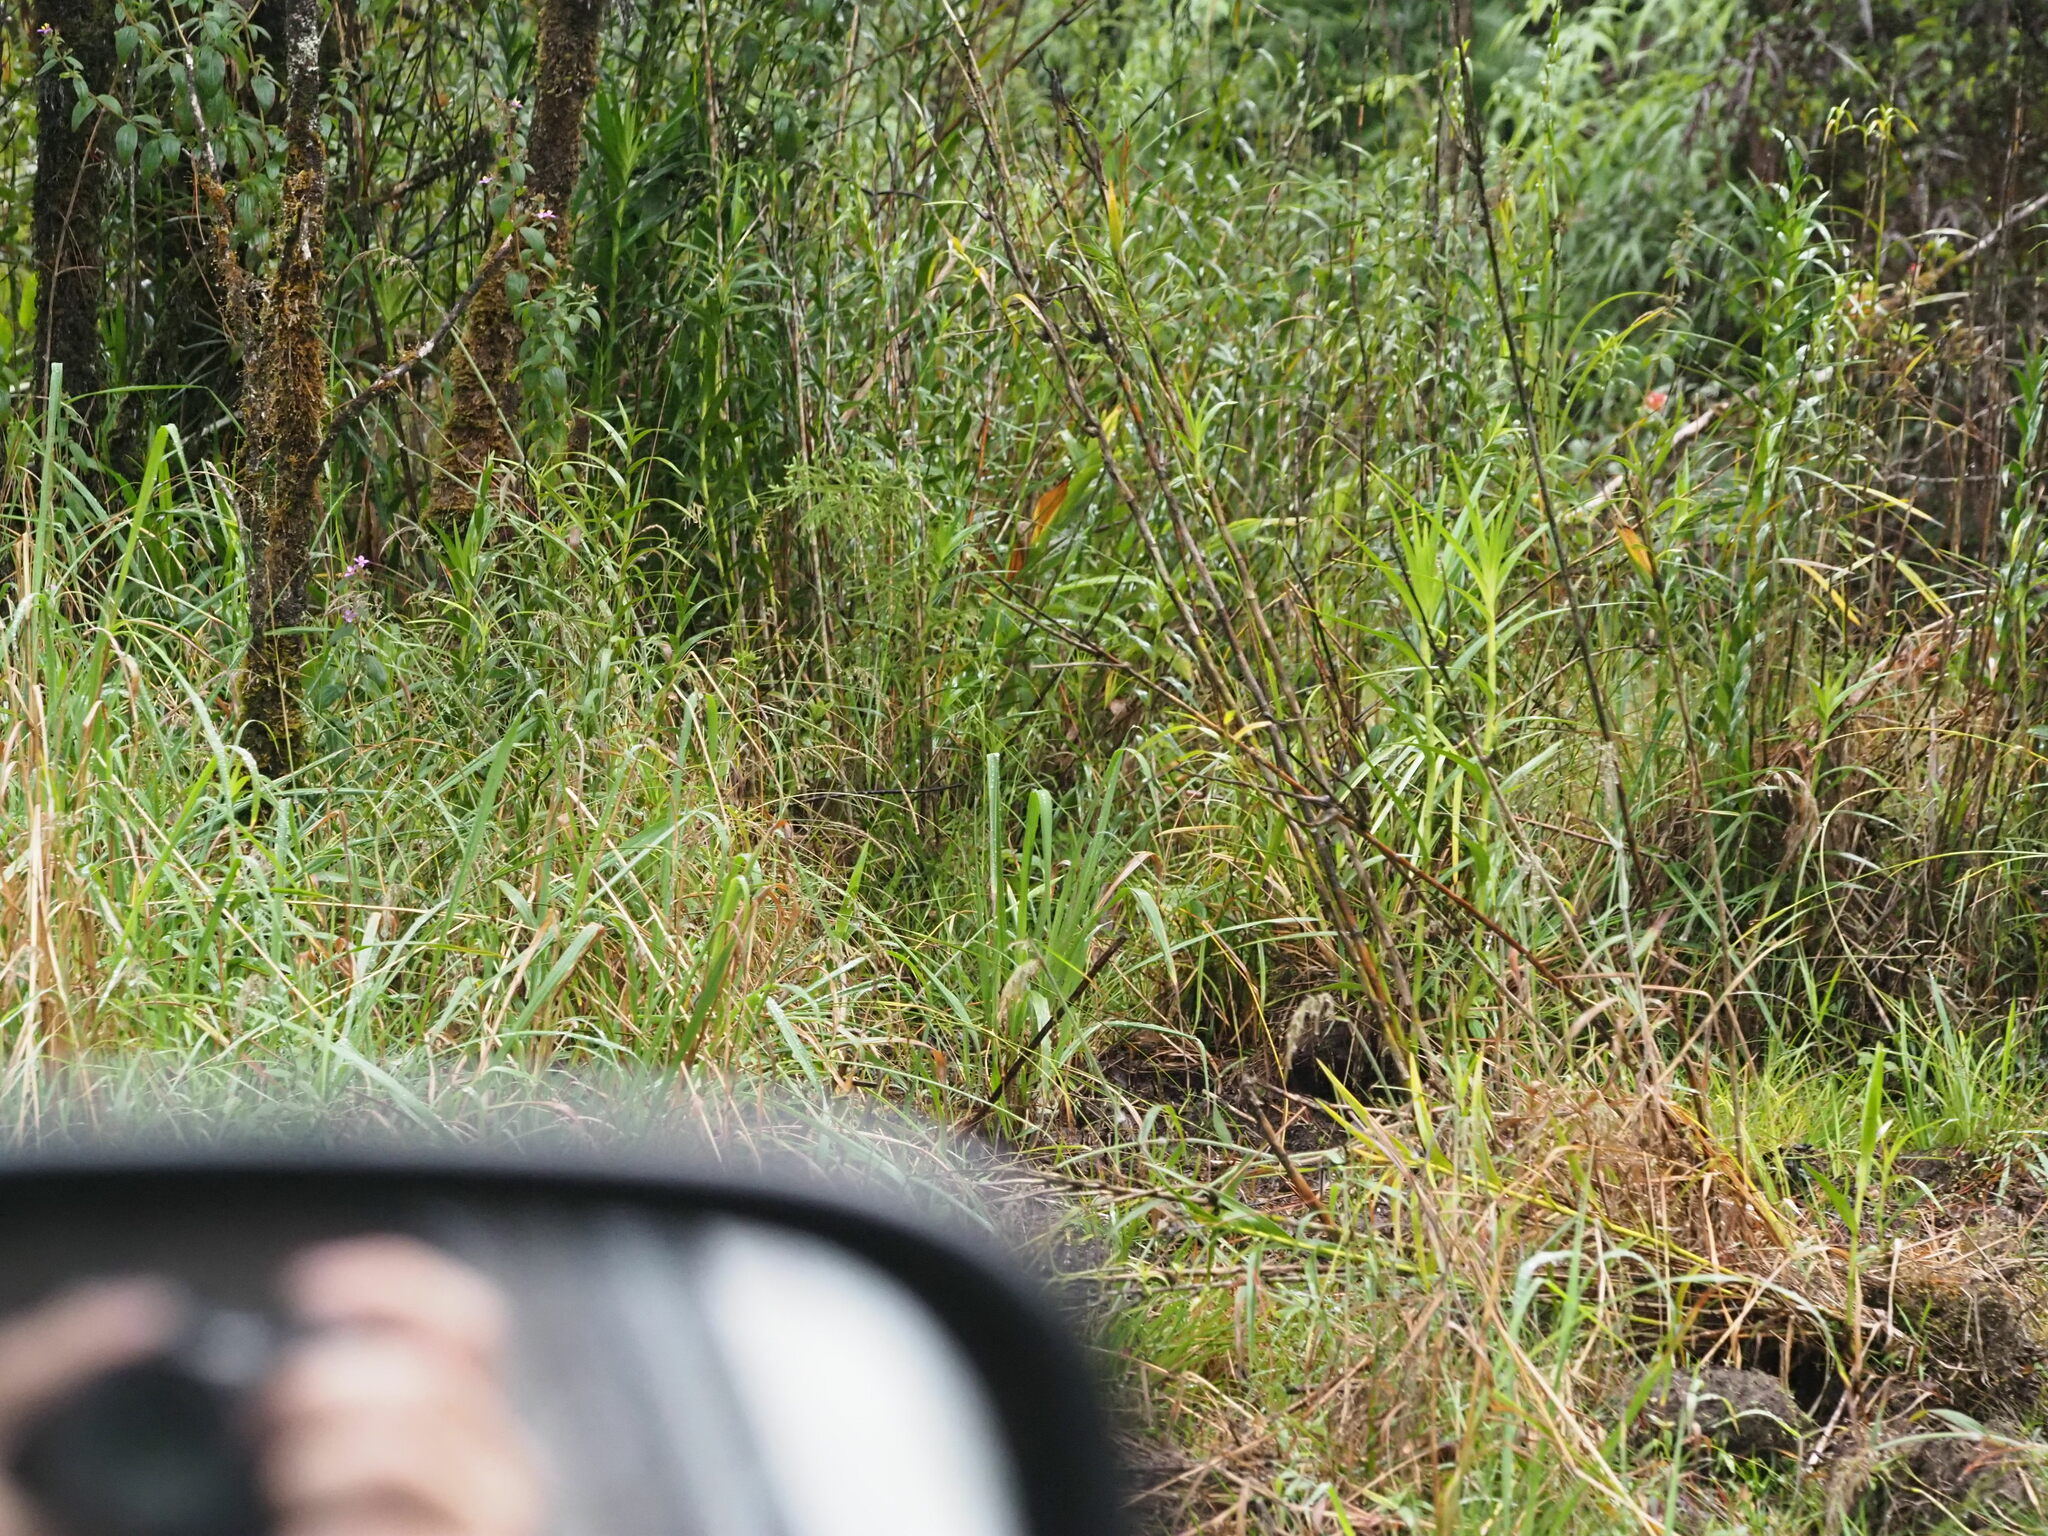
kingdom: Plantae
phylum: Tracheophyta
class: Liliopsida
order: Poales
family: Poaceae
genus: Paspalum
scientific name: Paspalum urvillei
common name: Vasey's grass
